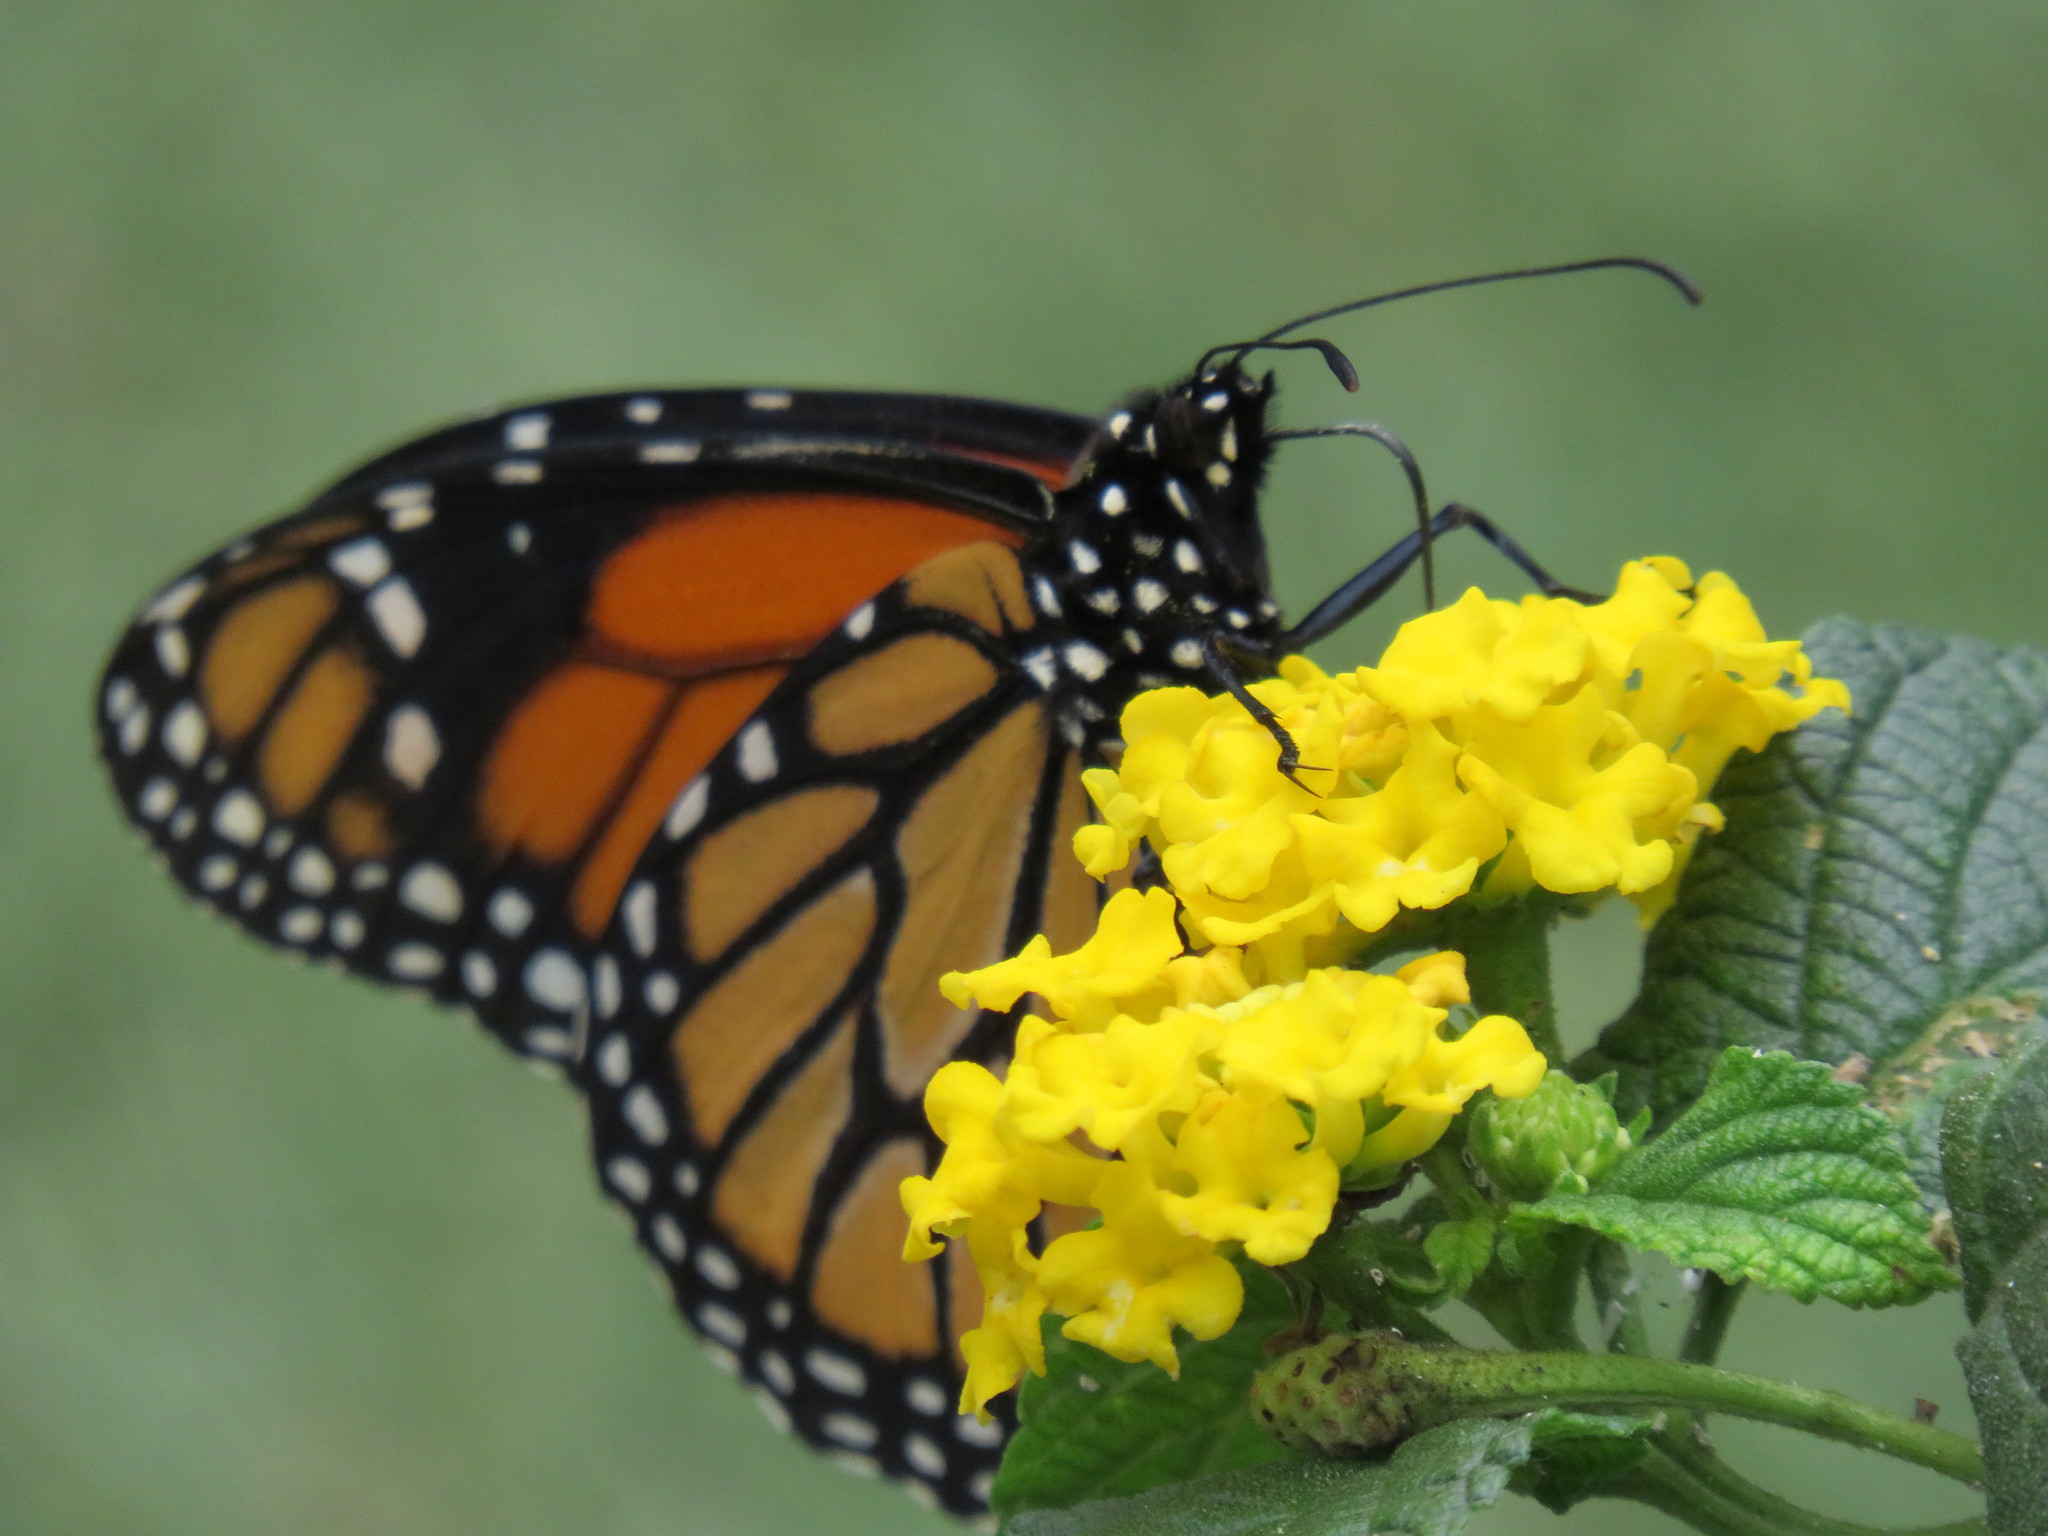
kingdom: Animalia
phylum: Arthropoda
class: Insecta
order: Lepidoptera
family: Nymphalidae
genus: Danaus
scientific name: Danaus plexippus
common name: Monarch
